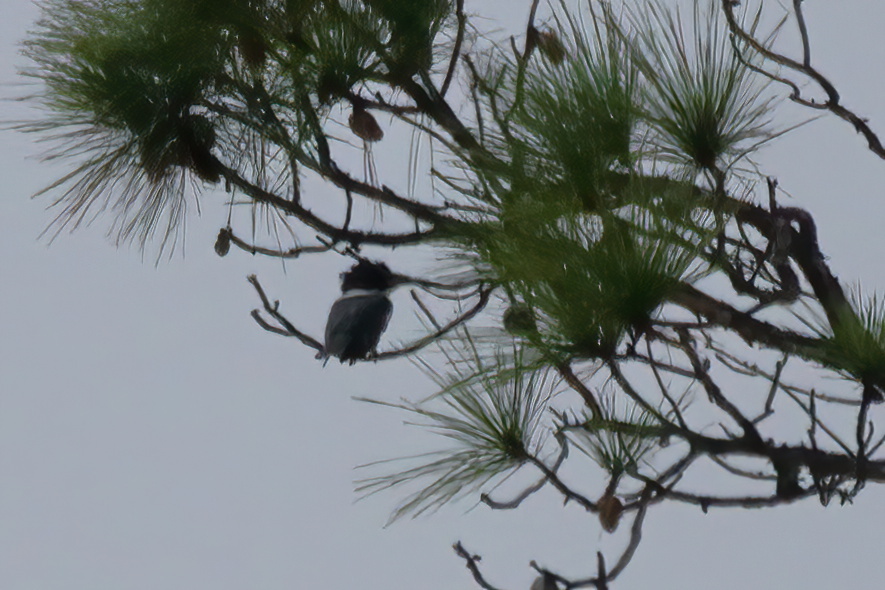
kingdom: Animalia
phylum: Chordata
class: Aves
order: Coraciiformes
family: Alcedinidae
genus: Megaceryle
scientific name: Megaceryle alcyon
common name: Belted kingfisher
